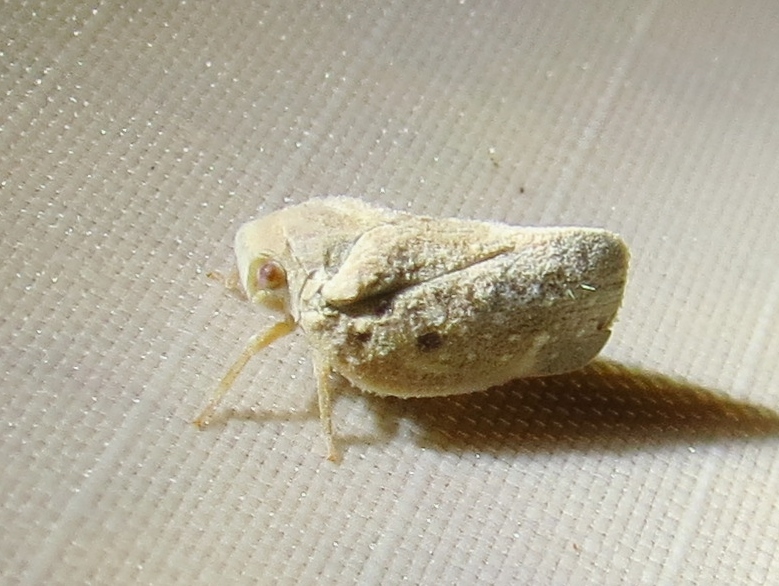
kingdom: Animalia
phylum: Arthropoda
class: Insecta
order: Hemiptera
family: Flatidae
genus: Metcalfa
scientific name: Metcalfa pruinosa
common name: Citrus flatid planthopper
